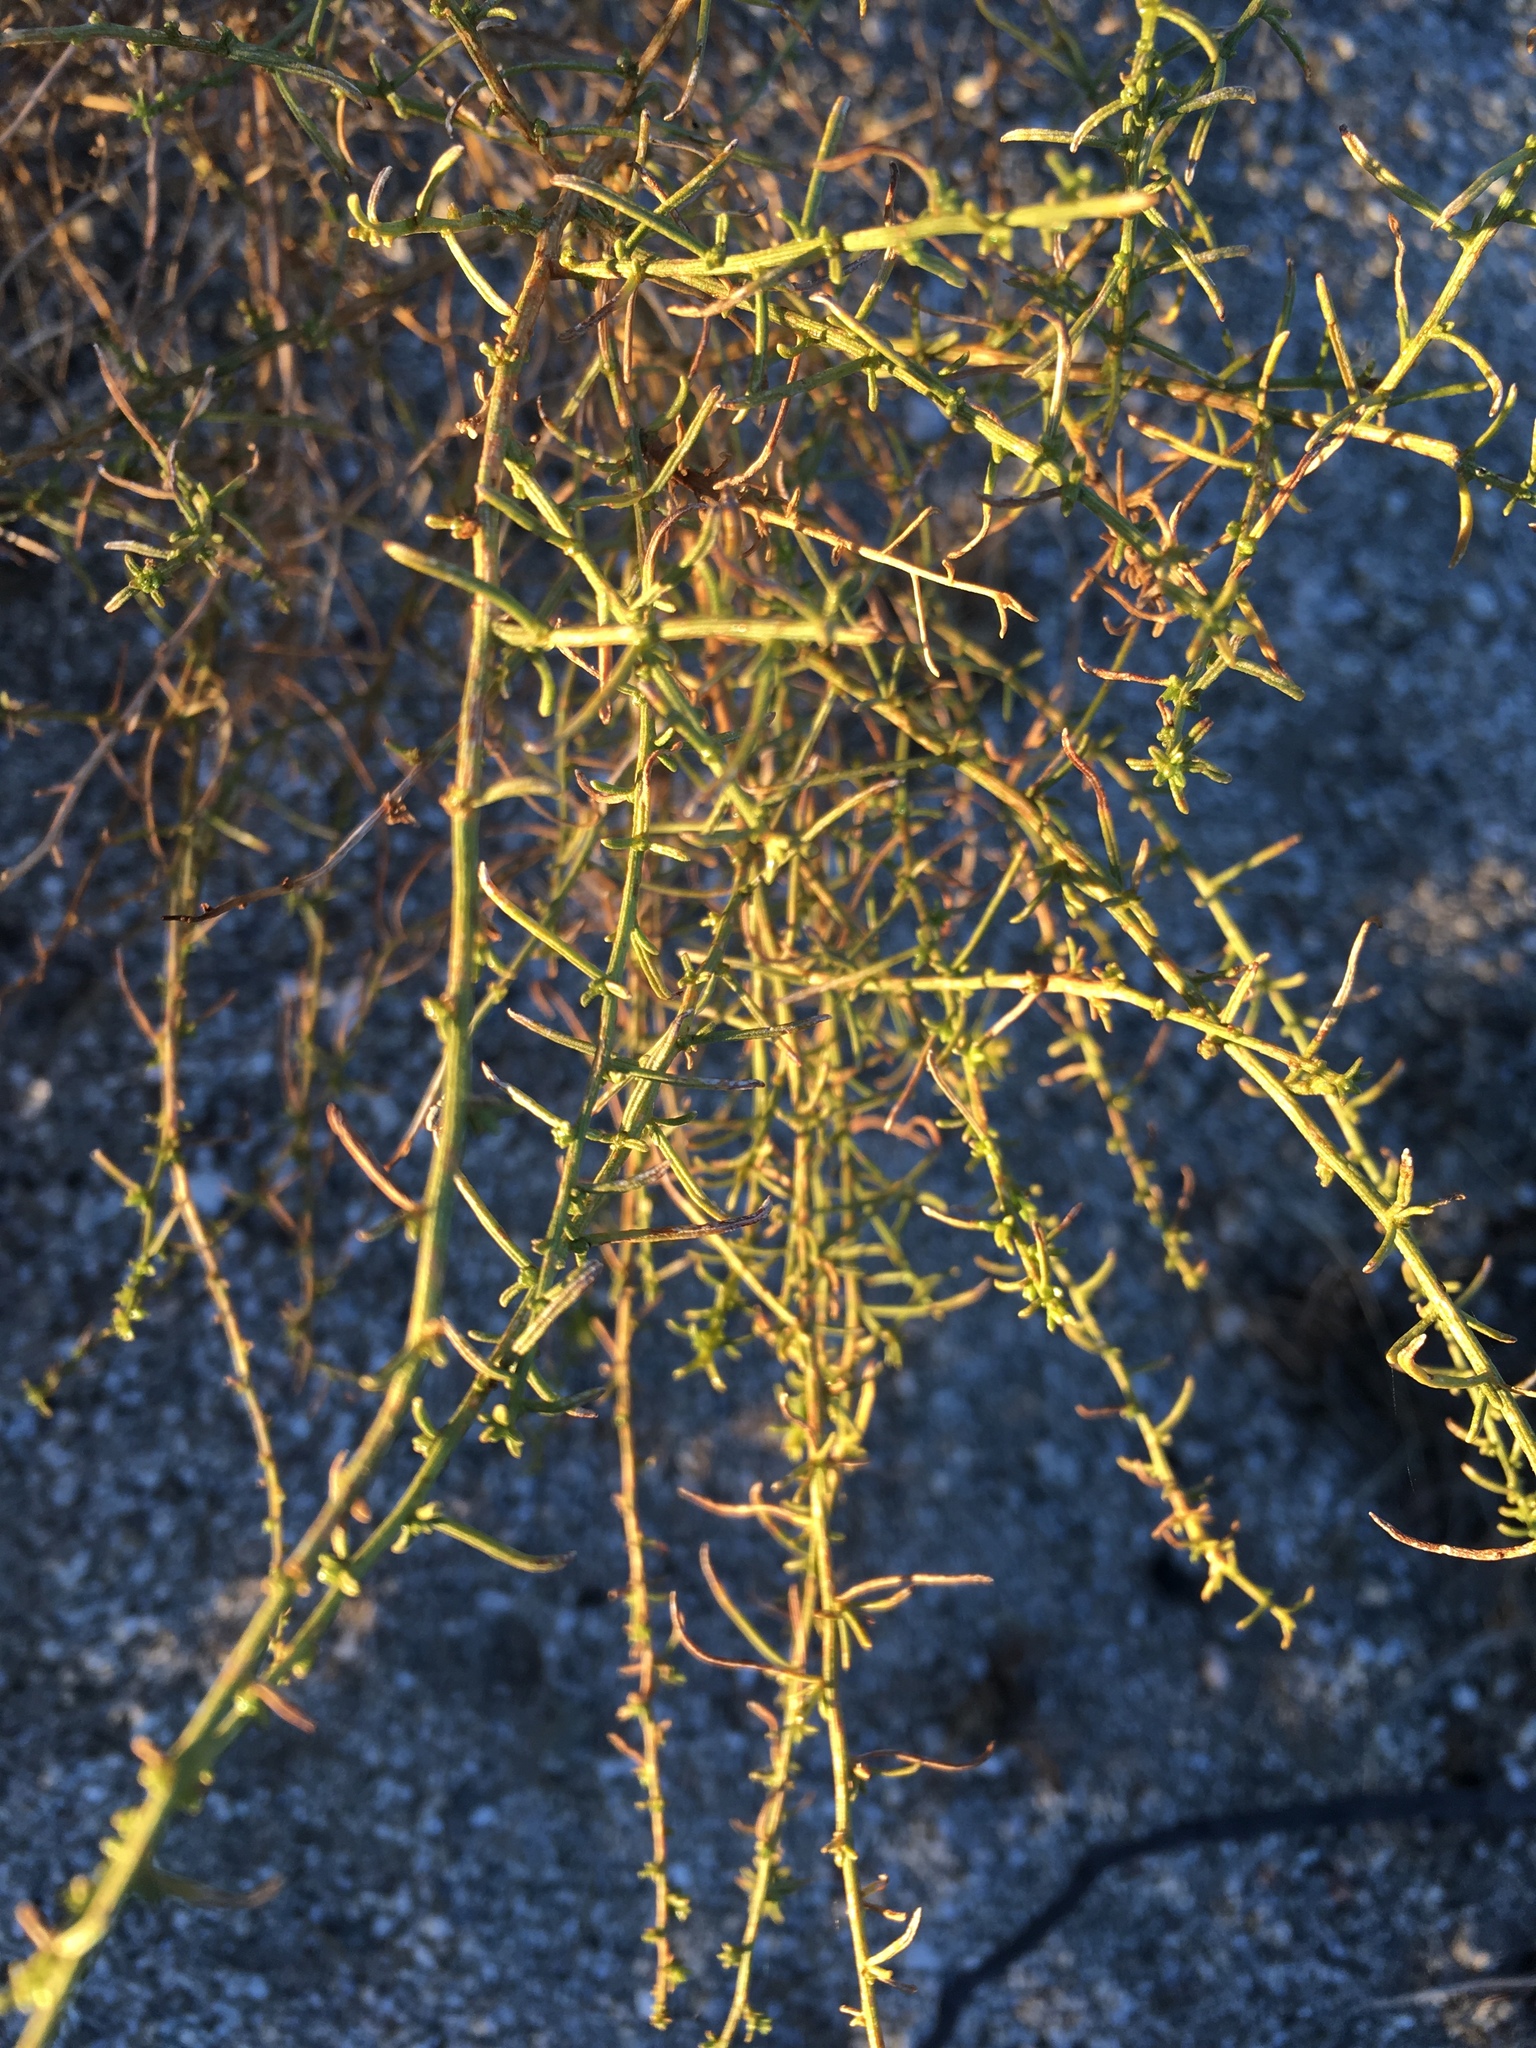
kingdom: Plantae
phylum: Tracheophyta
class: Magnoliopsida
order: Asterales
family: Asteraceae
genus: Ambrosia
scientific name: Ambrosia salsola
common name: Burrobrush
